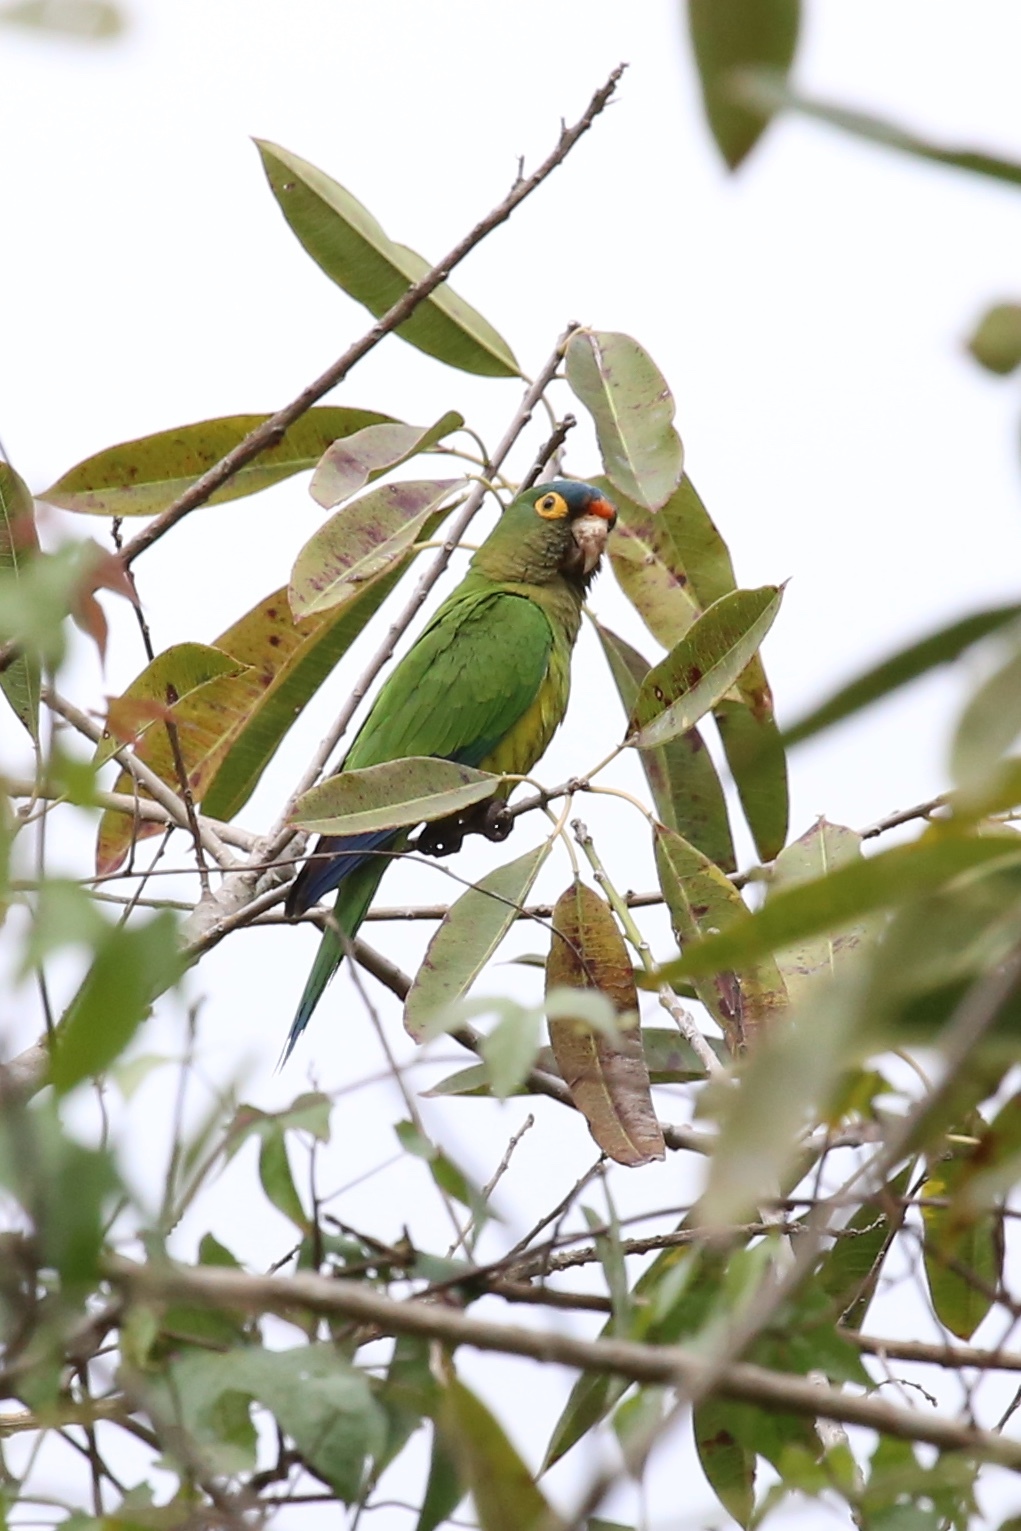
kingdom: Animalia
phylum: Chordata
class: Aves
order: Psittaciformes
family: Psittacidae
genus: Aratinga
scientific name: Aratinga canicularis
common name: Orange-fronted parakeet
